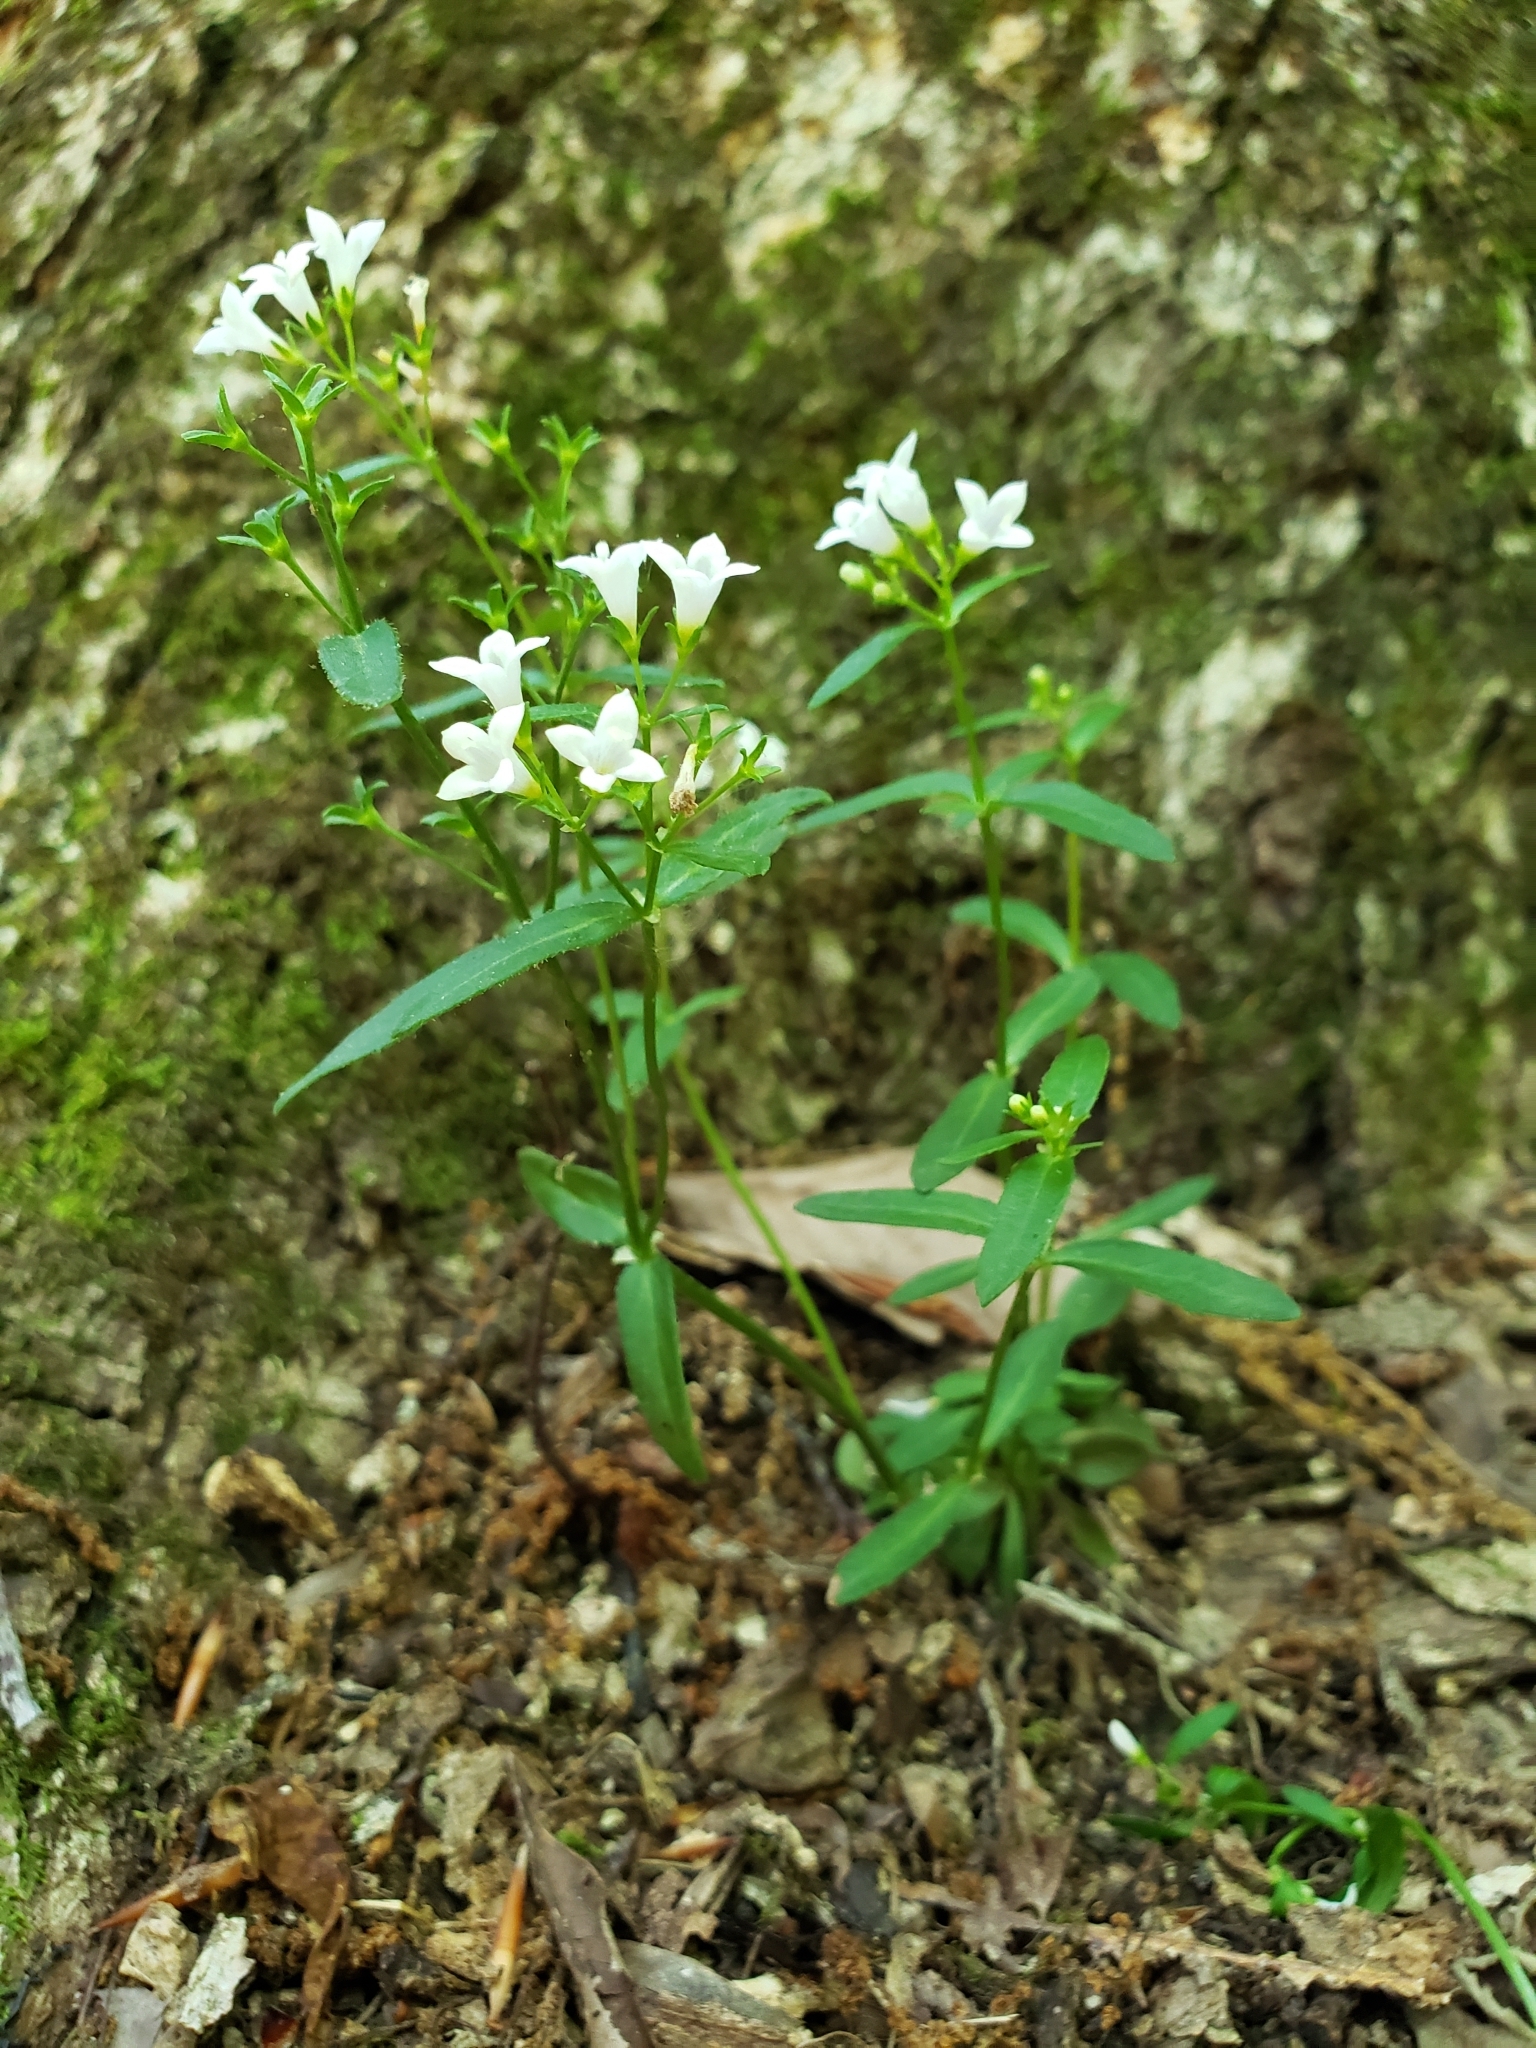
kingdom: Plantae
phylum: Tracheophyta
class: Magnoliopsida
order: Gentianales
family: Rubiaceae
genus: Houstonia
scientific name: Houstonia longifolia
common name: Long-leaved bluets
